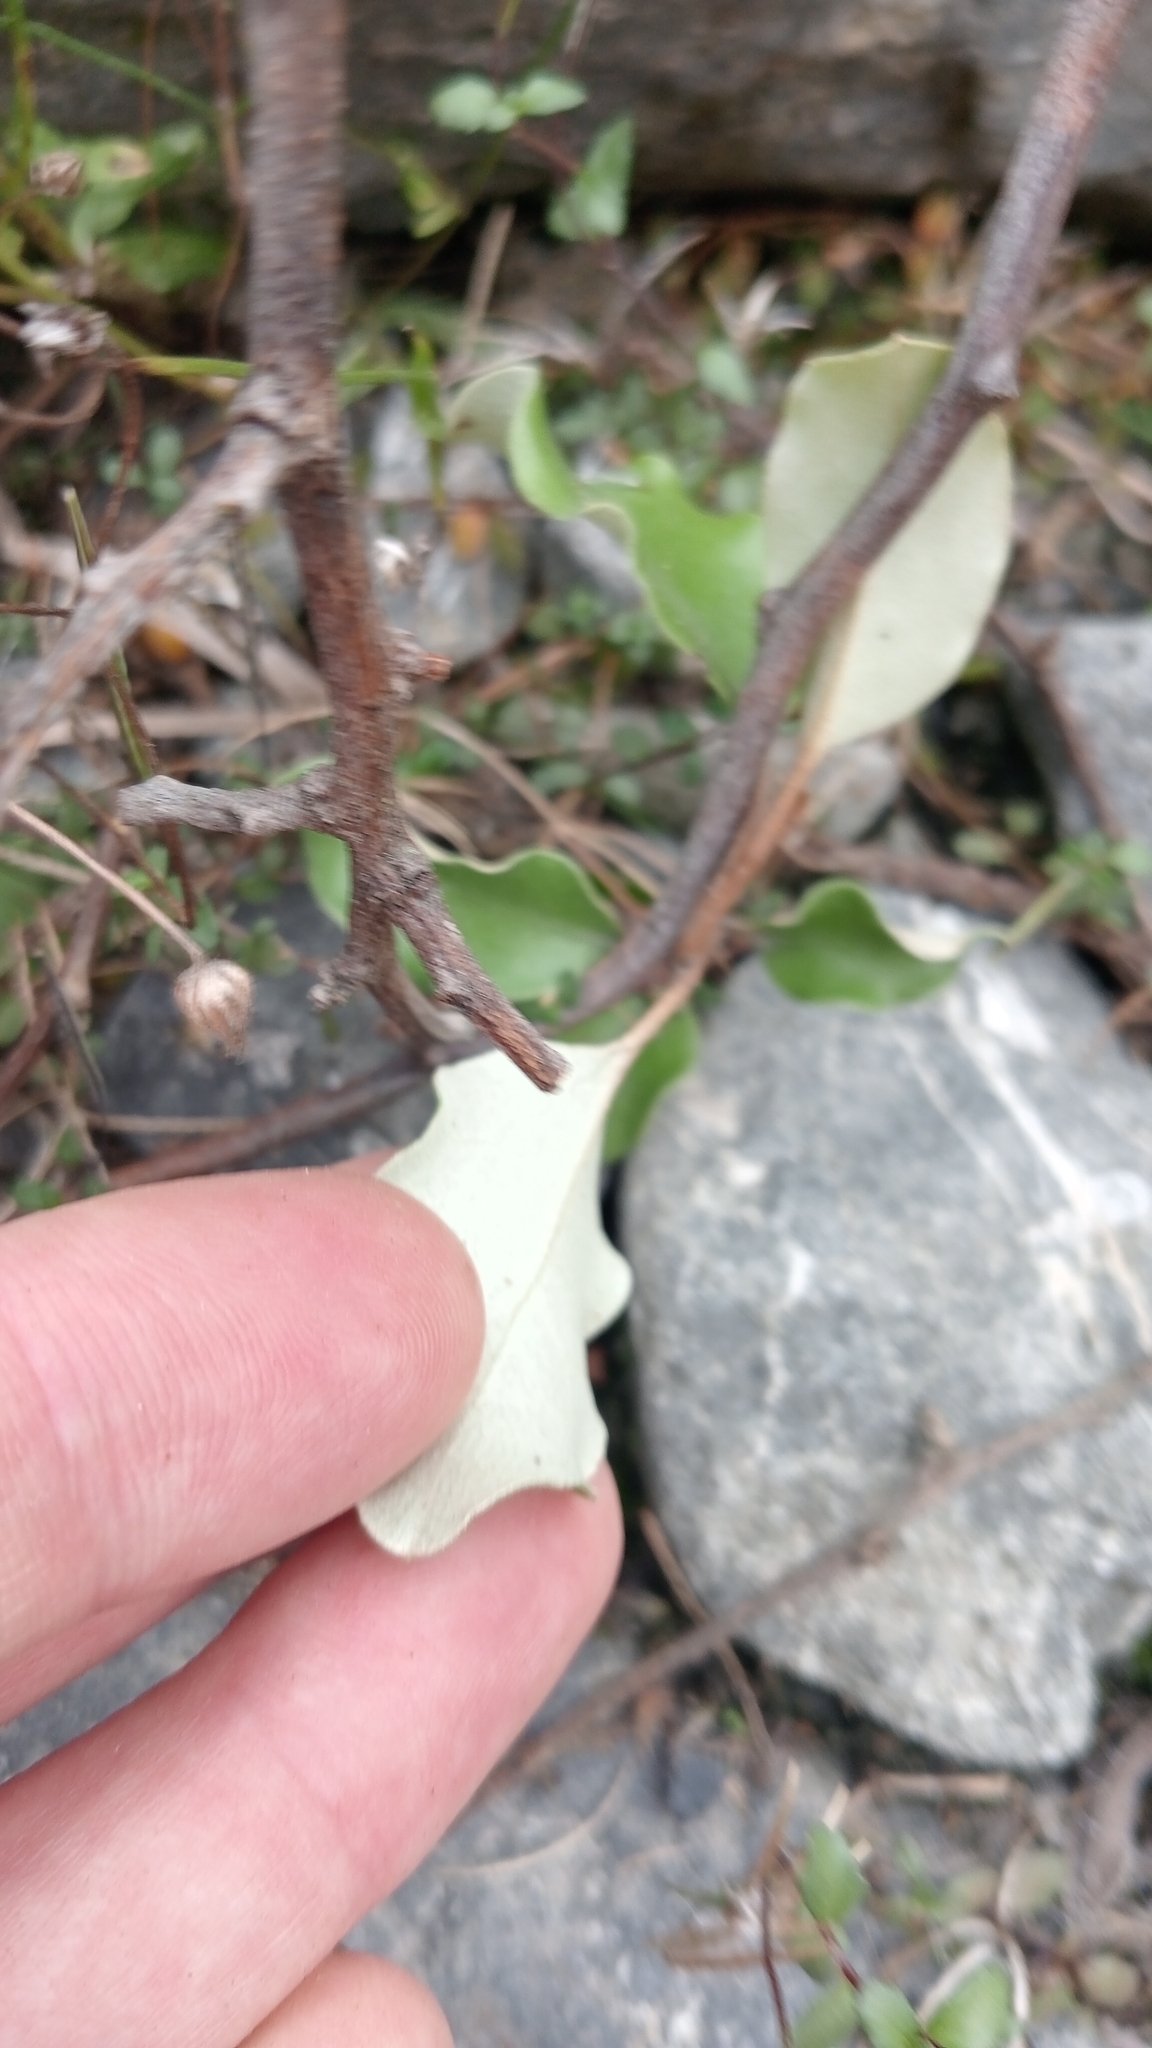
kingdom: Plantae
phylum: Tracheophyta
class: Magnoliopsida
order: Asterales
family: Asteraceae
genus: Olearia
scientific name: Olearia paniculata
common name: Akiraho
